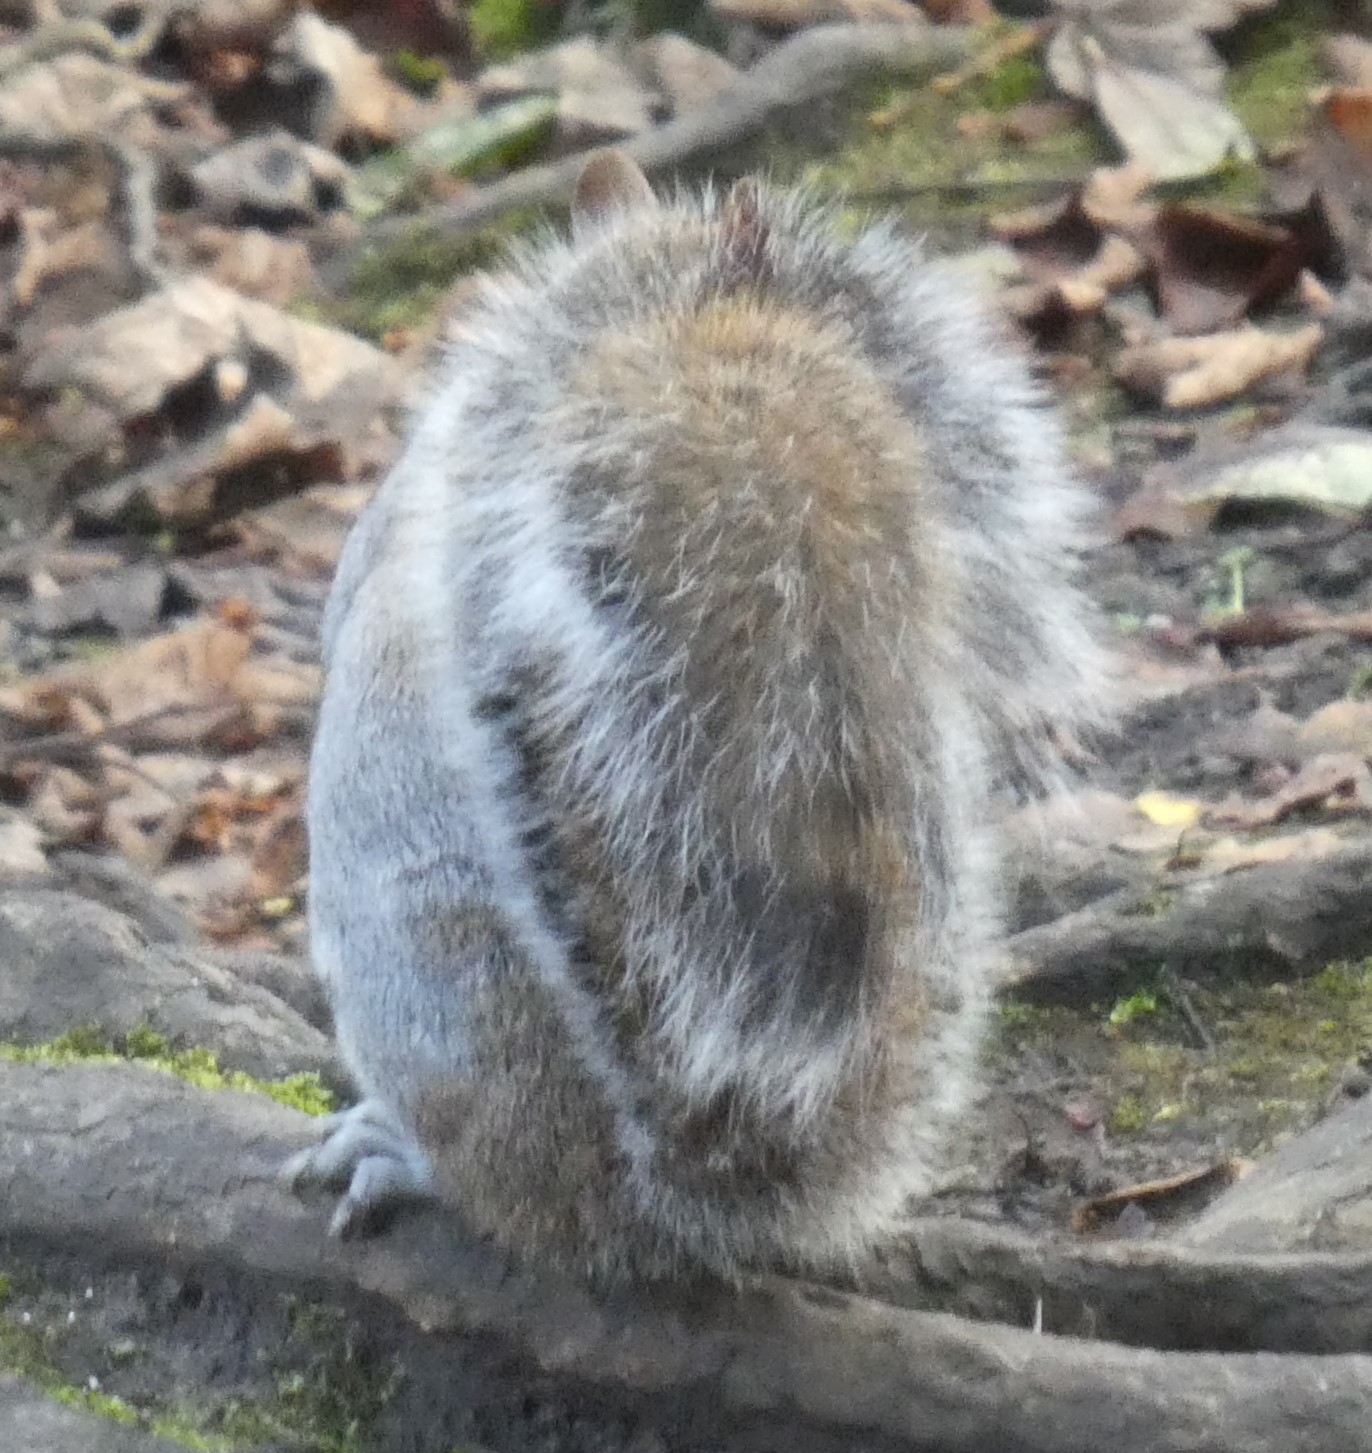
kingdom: Animalia
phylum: Chordata
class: Mammalia
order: Rodentia
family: Sciuridae
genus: Sciurus
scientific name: Sciurus carolinensis
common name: Eastern gray squirrel
